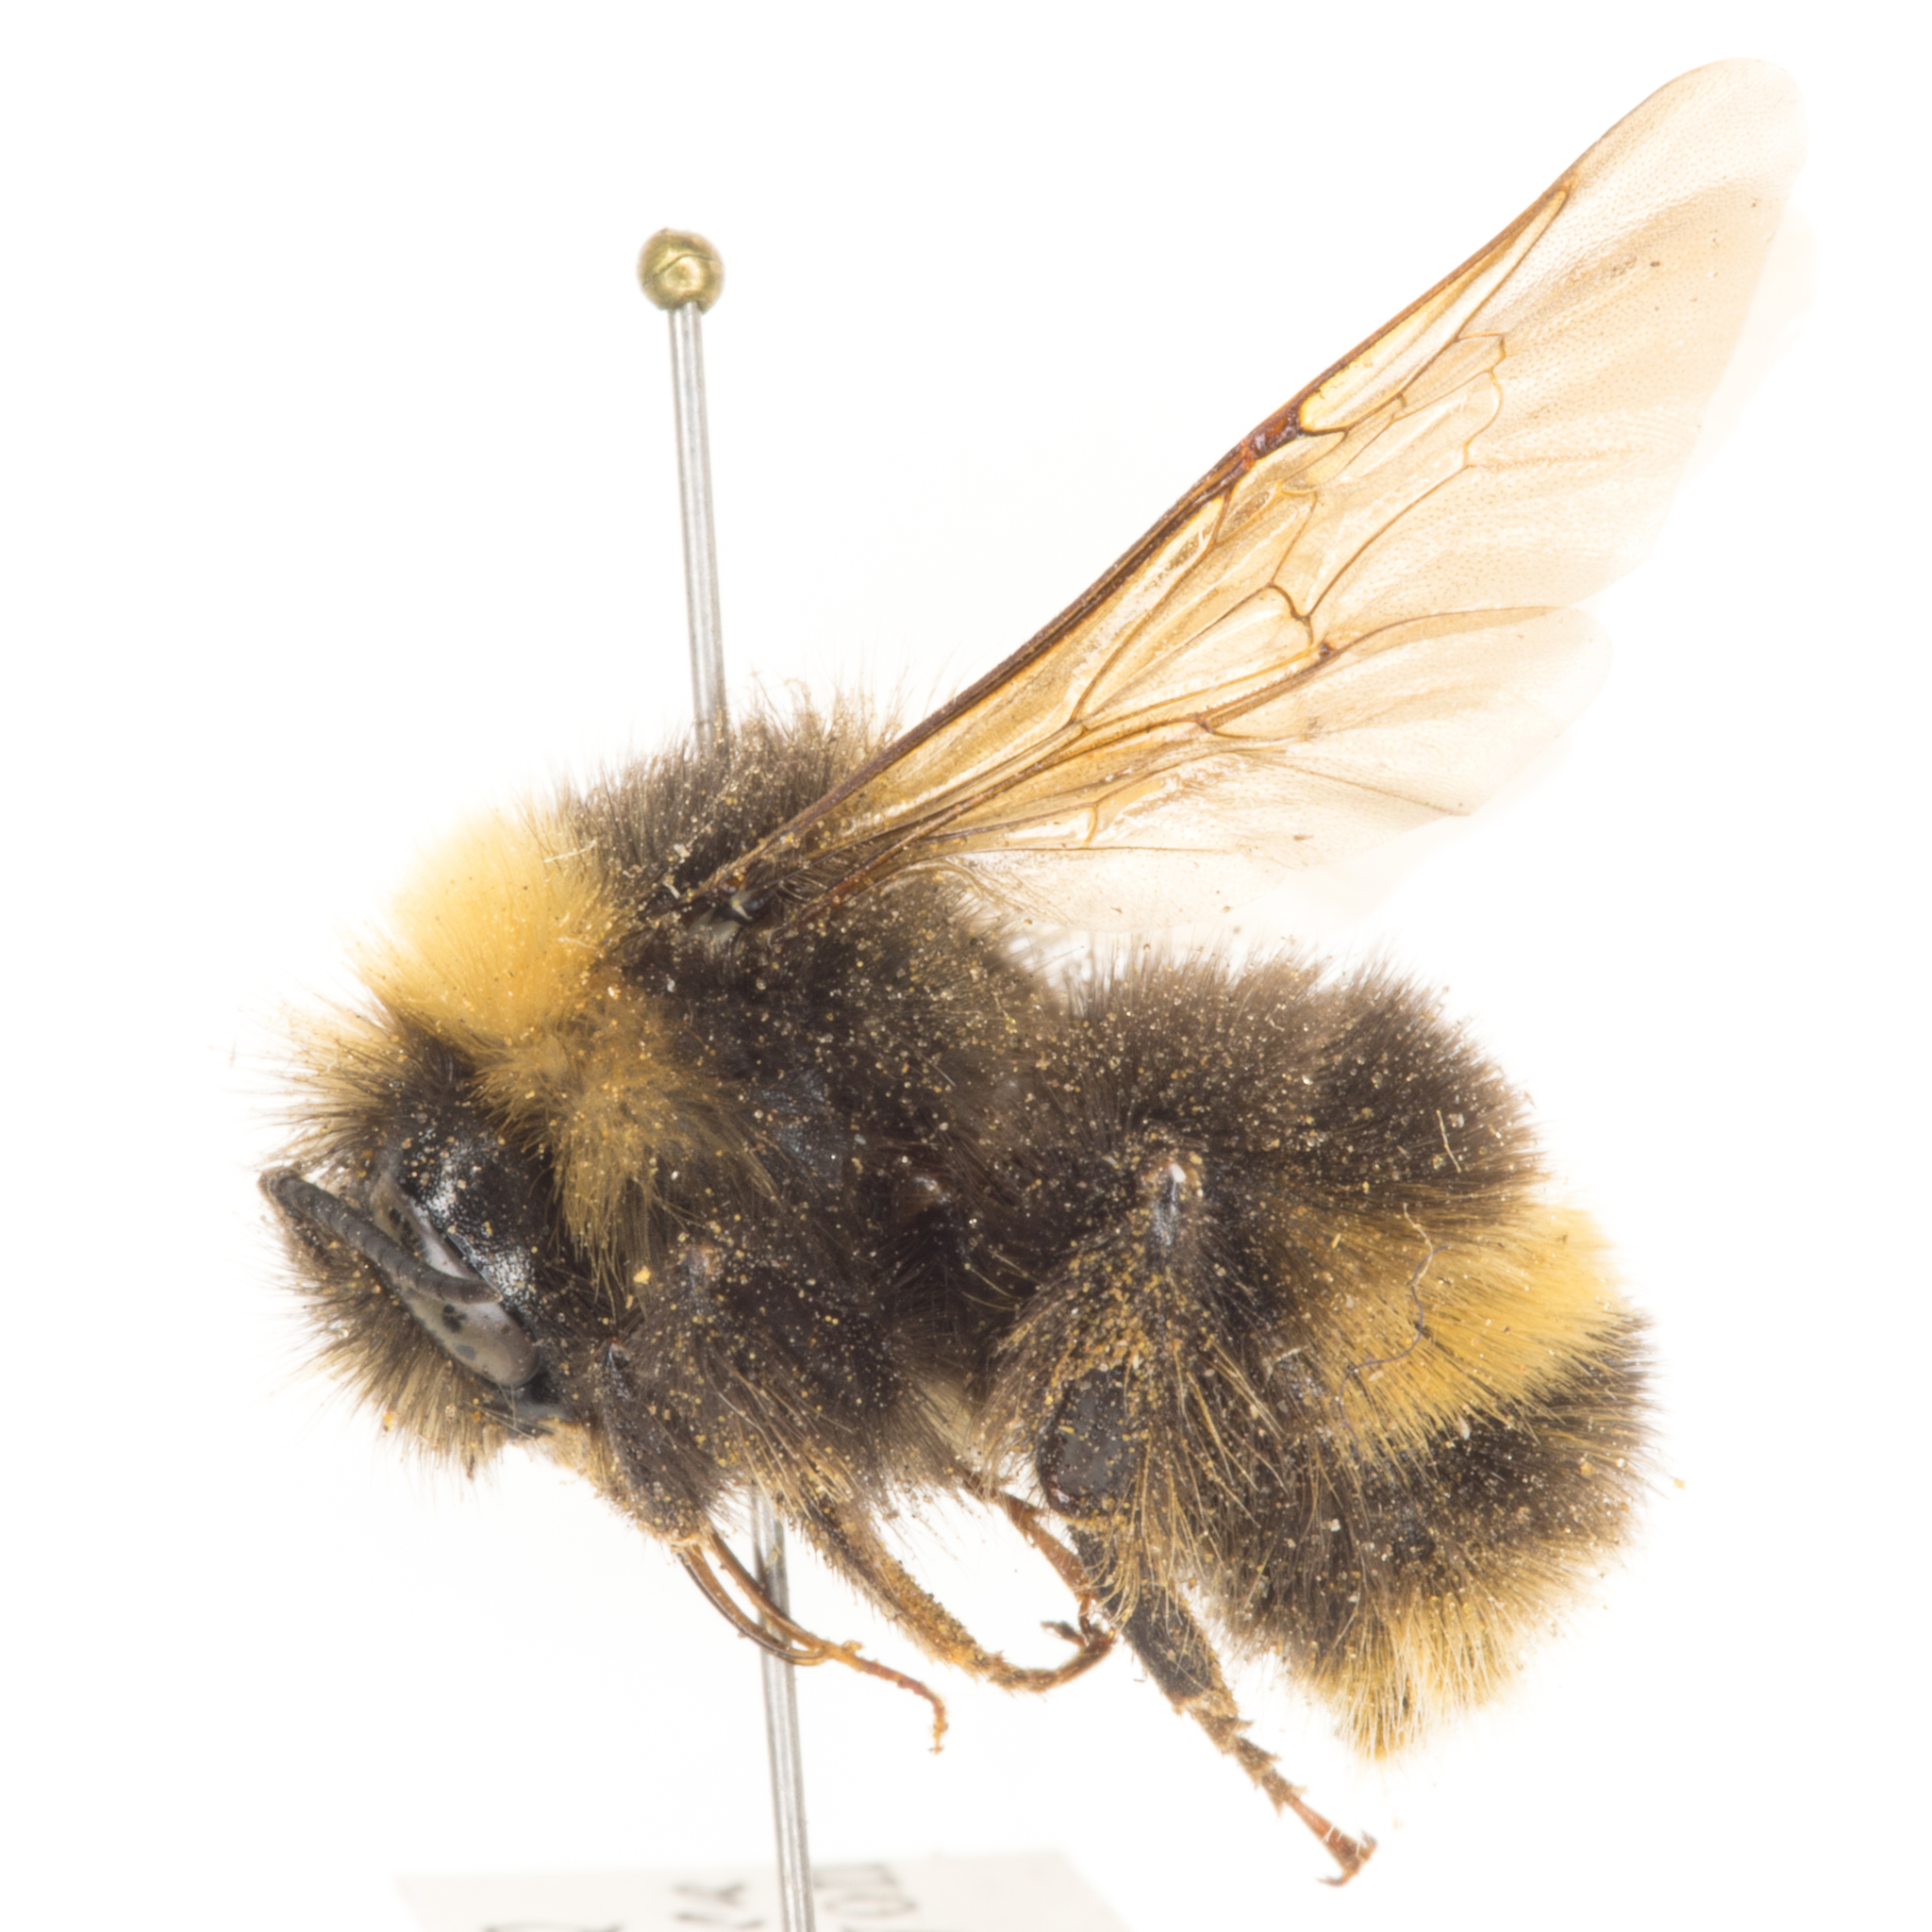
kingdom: Animalia
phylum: Arthropoda
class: Insecta
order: Hymenoptera
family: Apidae
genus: Bombus
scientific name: Bombus occidentalis
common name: Western bumble bee
